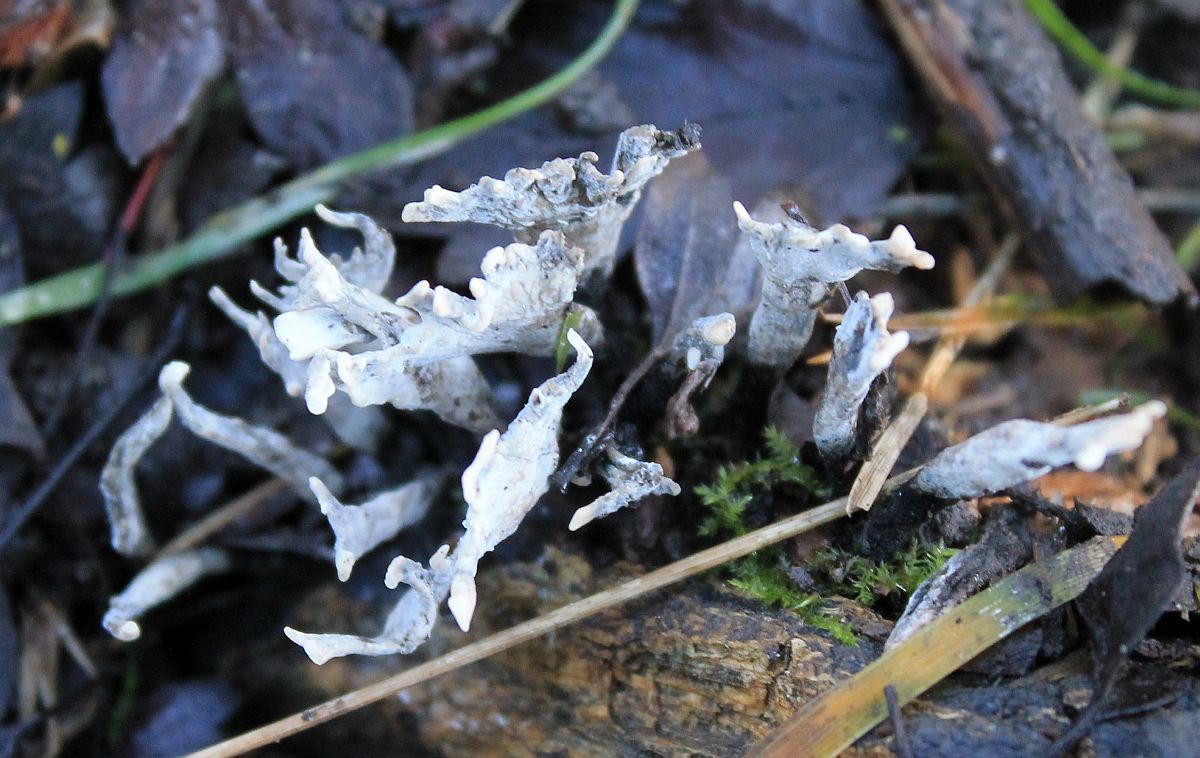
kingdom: Fungi
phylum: Ascomycota
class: Sordariomycetes
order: Xylariales
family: Xylariaceae
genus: Xylaria
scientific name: Xylaria hypoxylon
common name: Candle-snuff fungus
